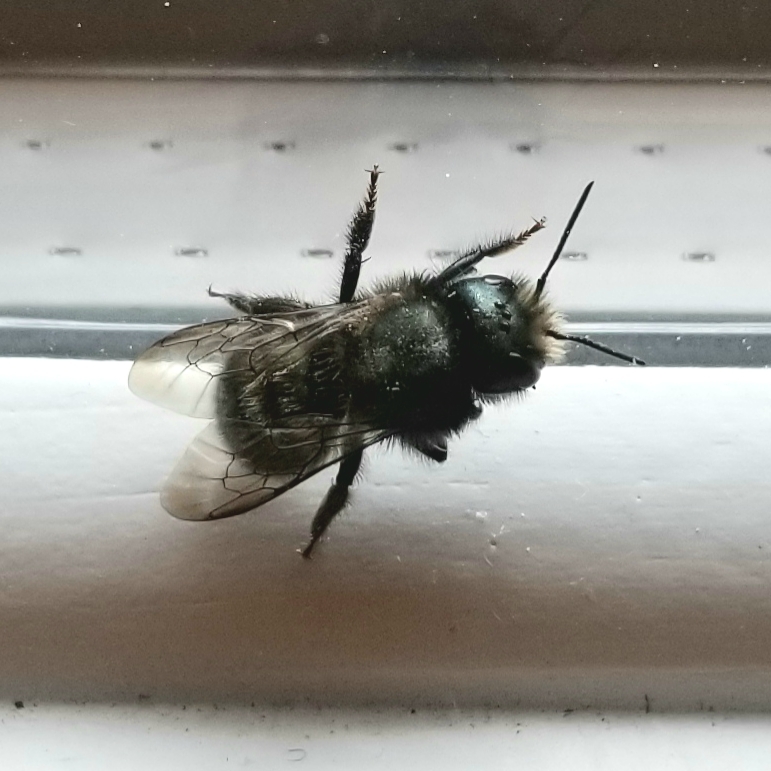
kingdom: Animalia
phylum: Arthropoda
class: Insecta
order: Hymenoptera
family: Megachilidae
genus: Osmia
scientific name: Osmia lignaria
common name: Blue orchard bee
